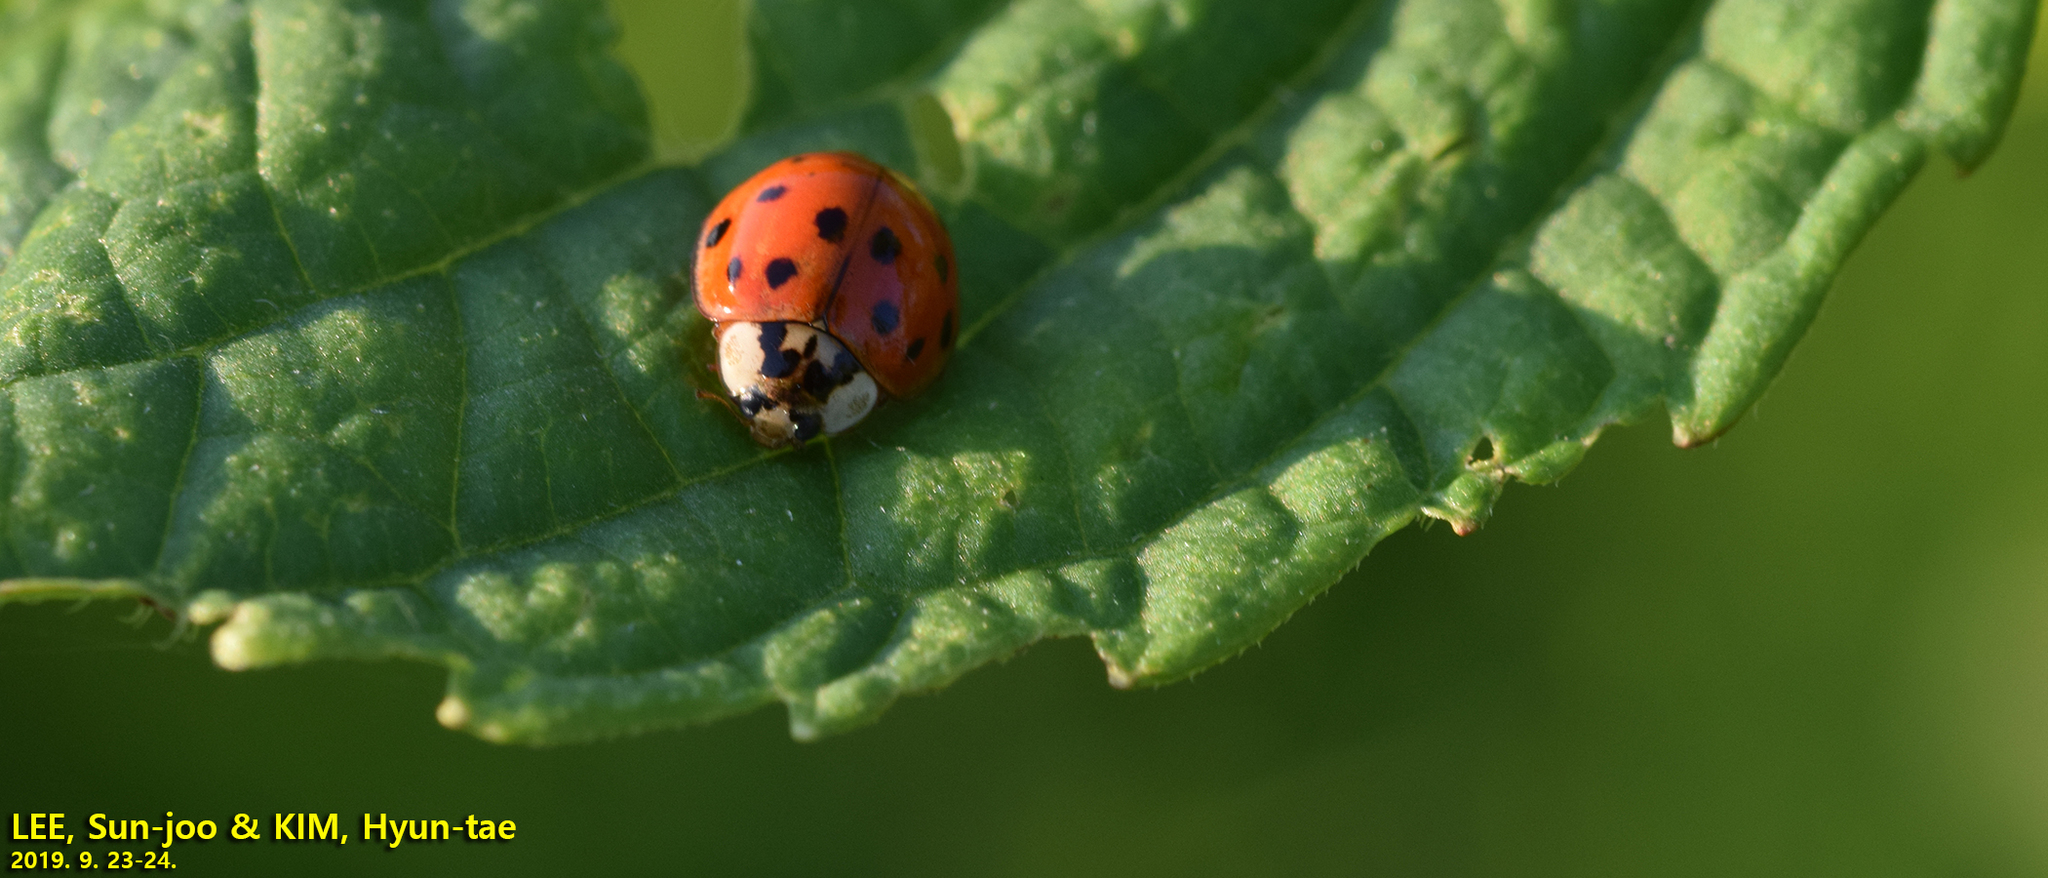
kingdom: Animalia
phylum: Arthropoda
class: Insecta
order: Coleoptera
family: Coccinellidae
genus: Harmonia
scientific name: Harmonia axyridis
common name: Harlequin ladybird
